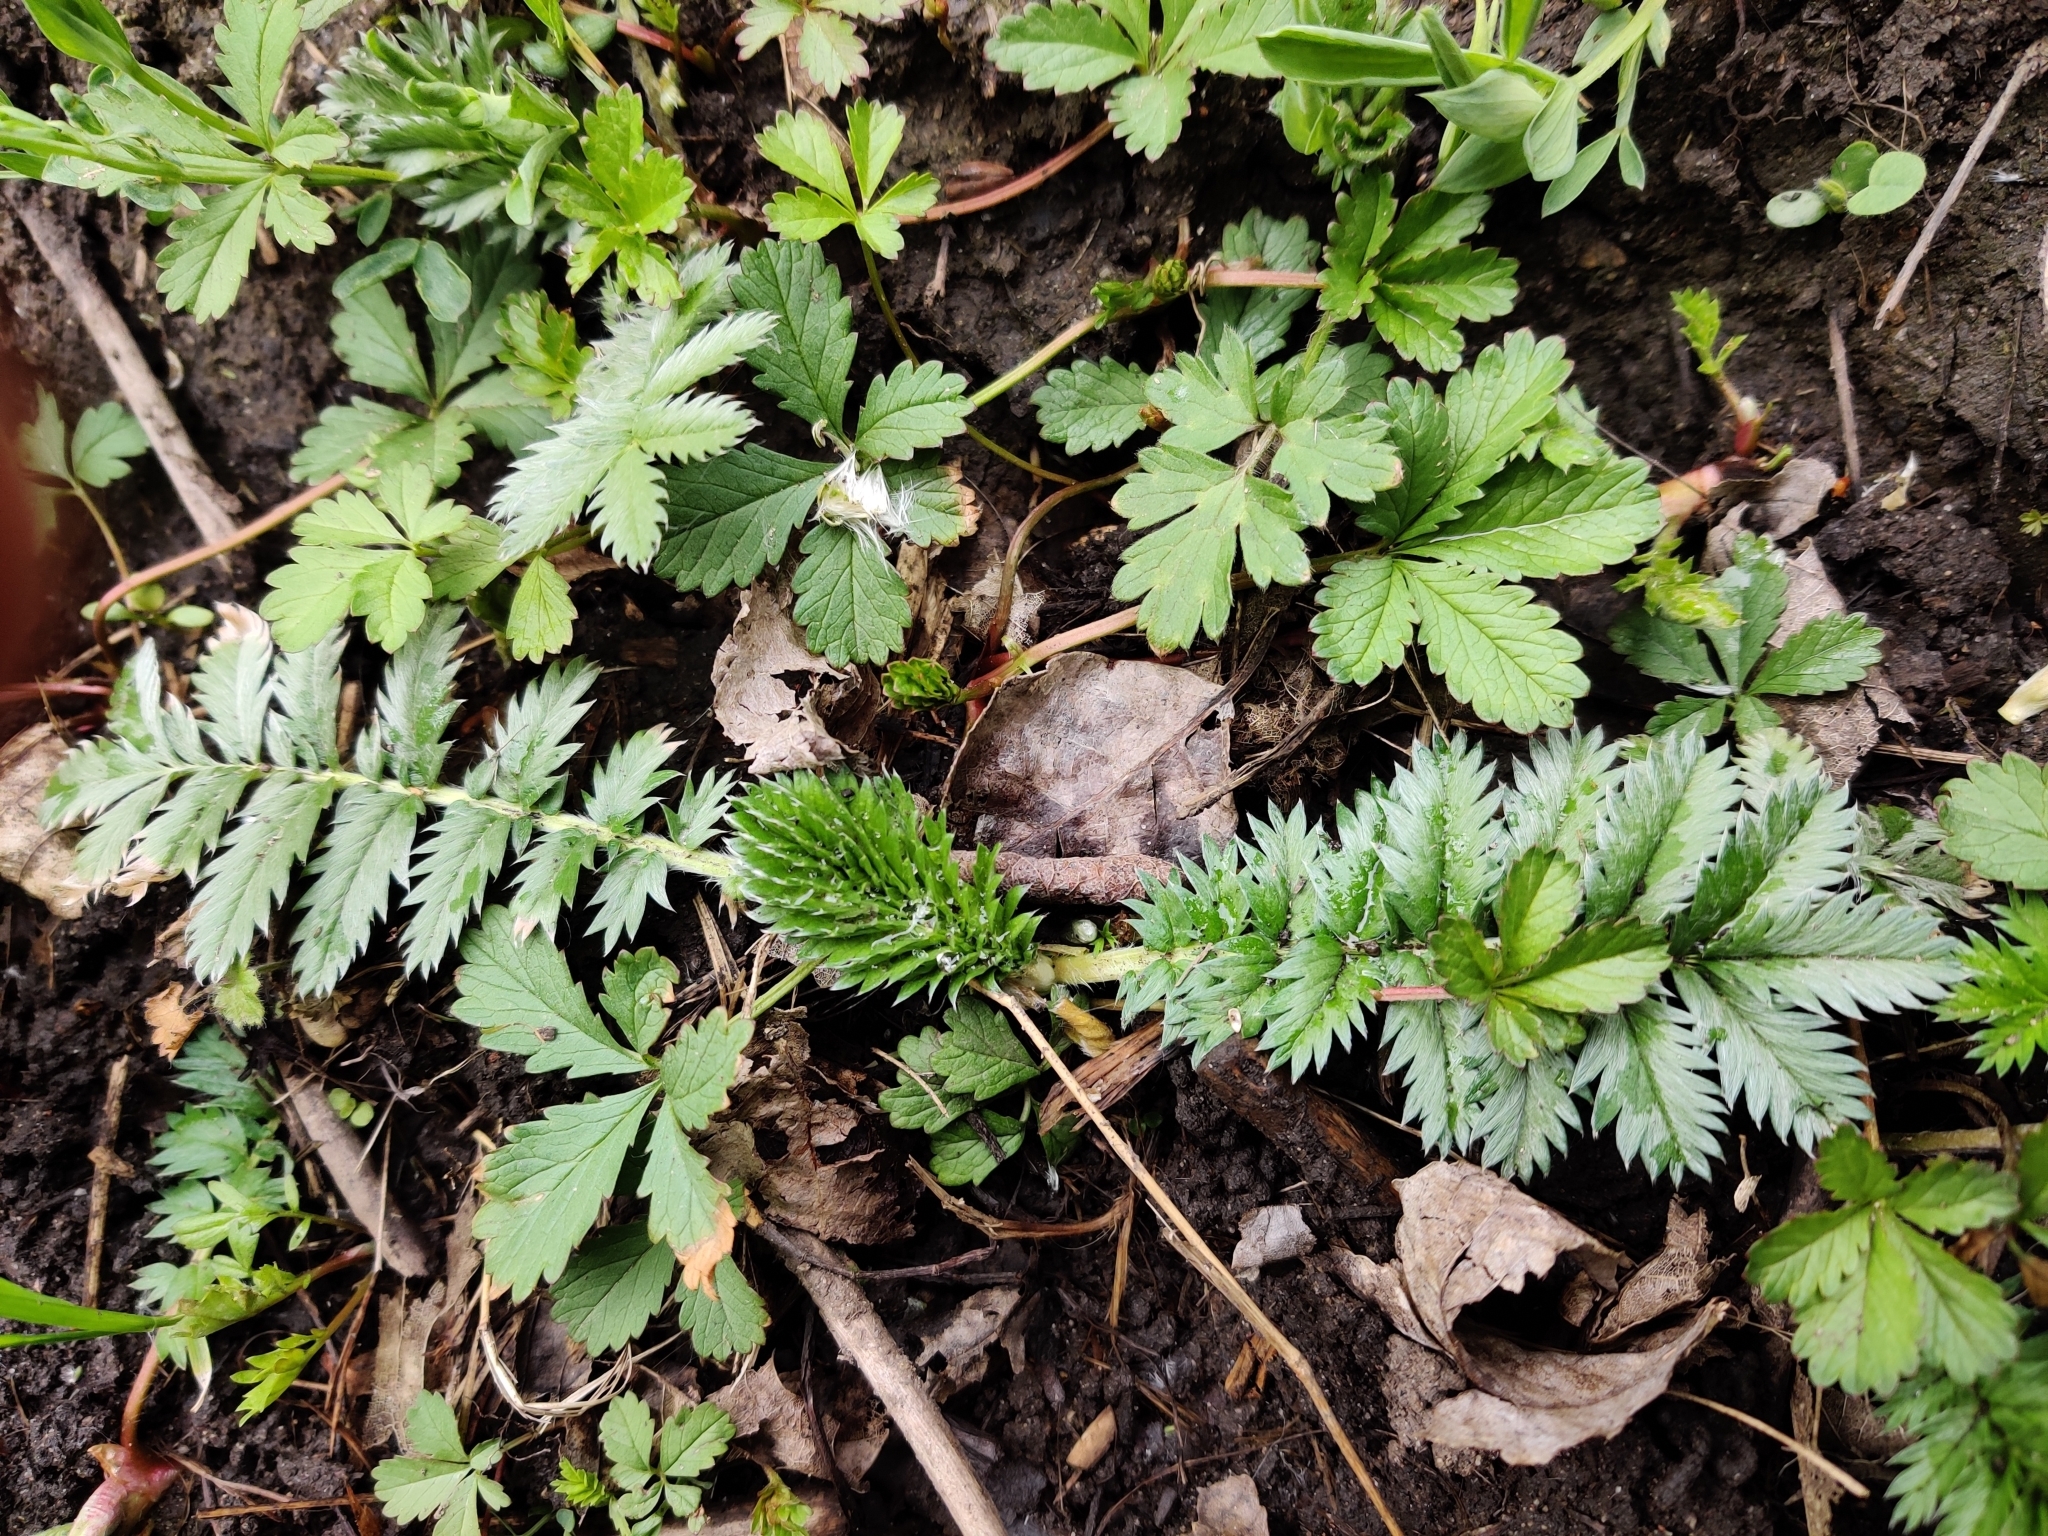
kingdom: Plantae
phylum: Tracheophyta
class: Magnoliopsida
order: Rosales
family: Rosaceae
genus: Argentina
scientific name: Argentina anserina
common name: Common silverweed
